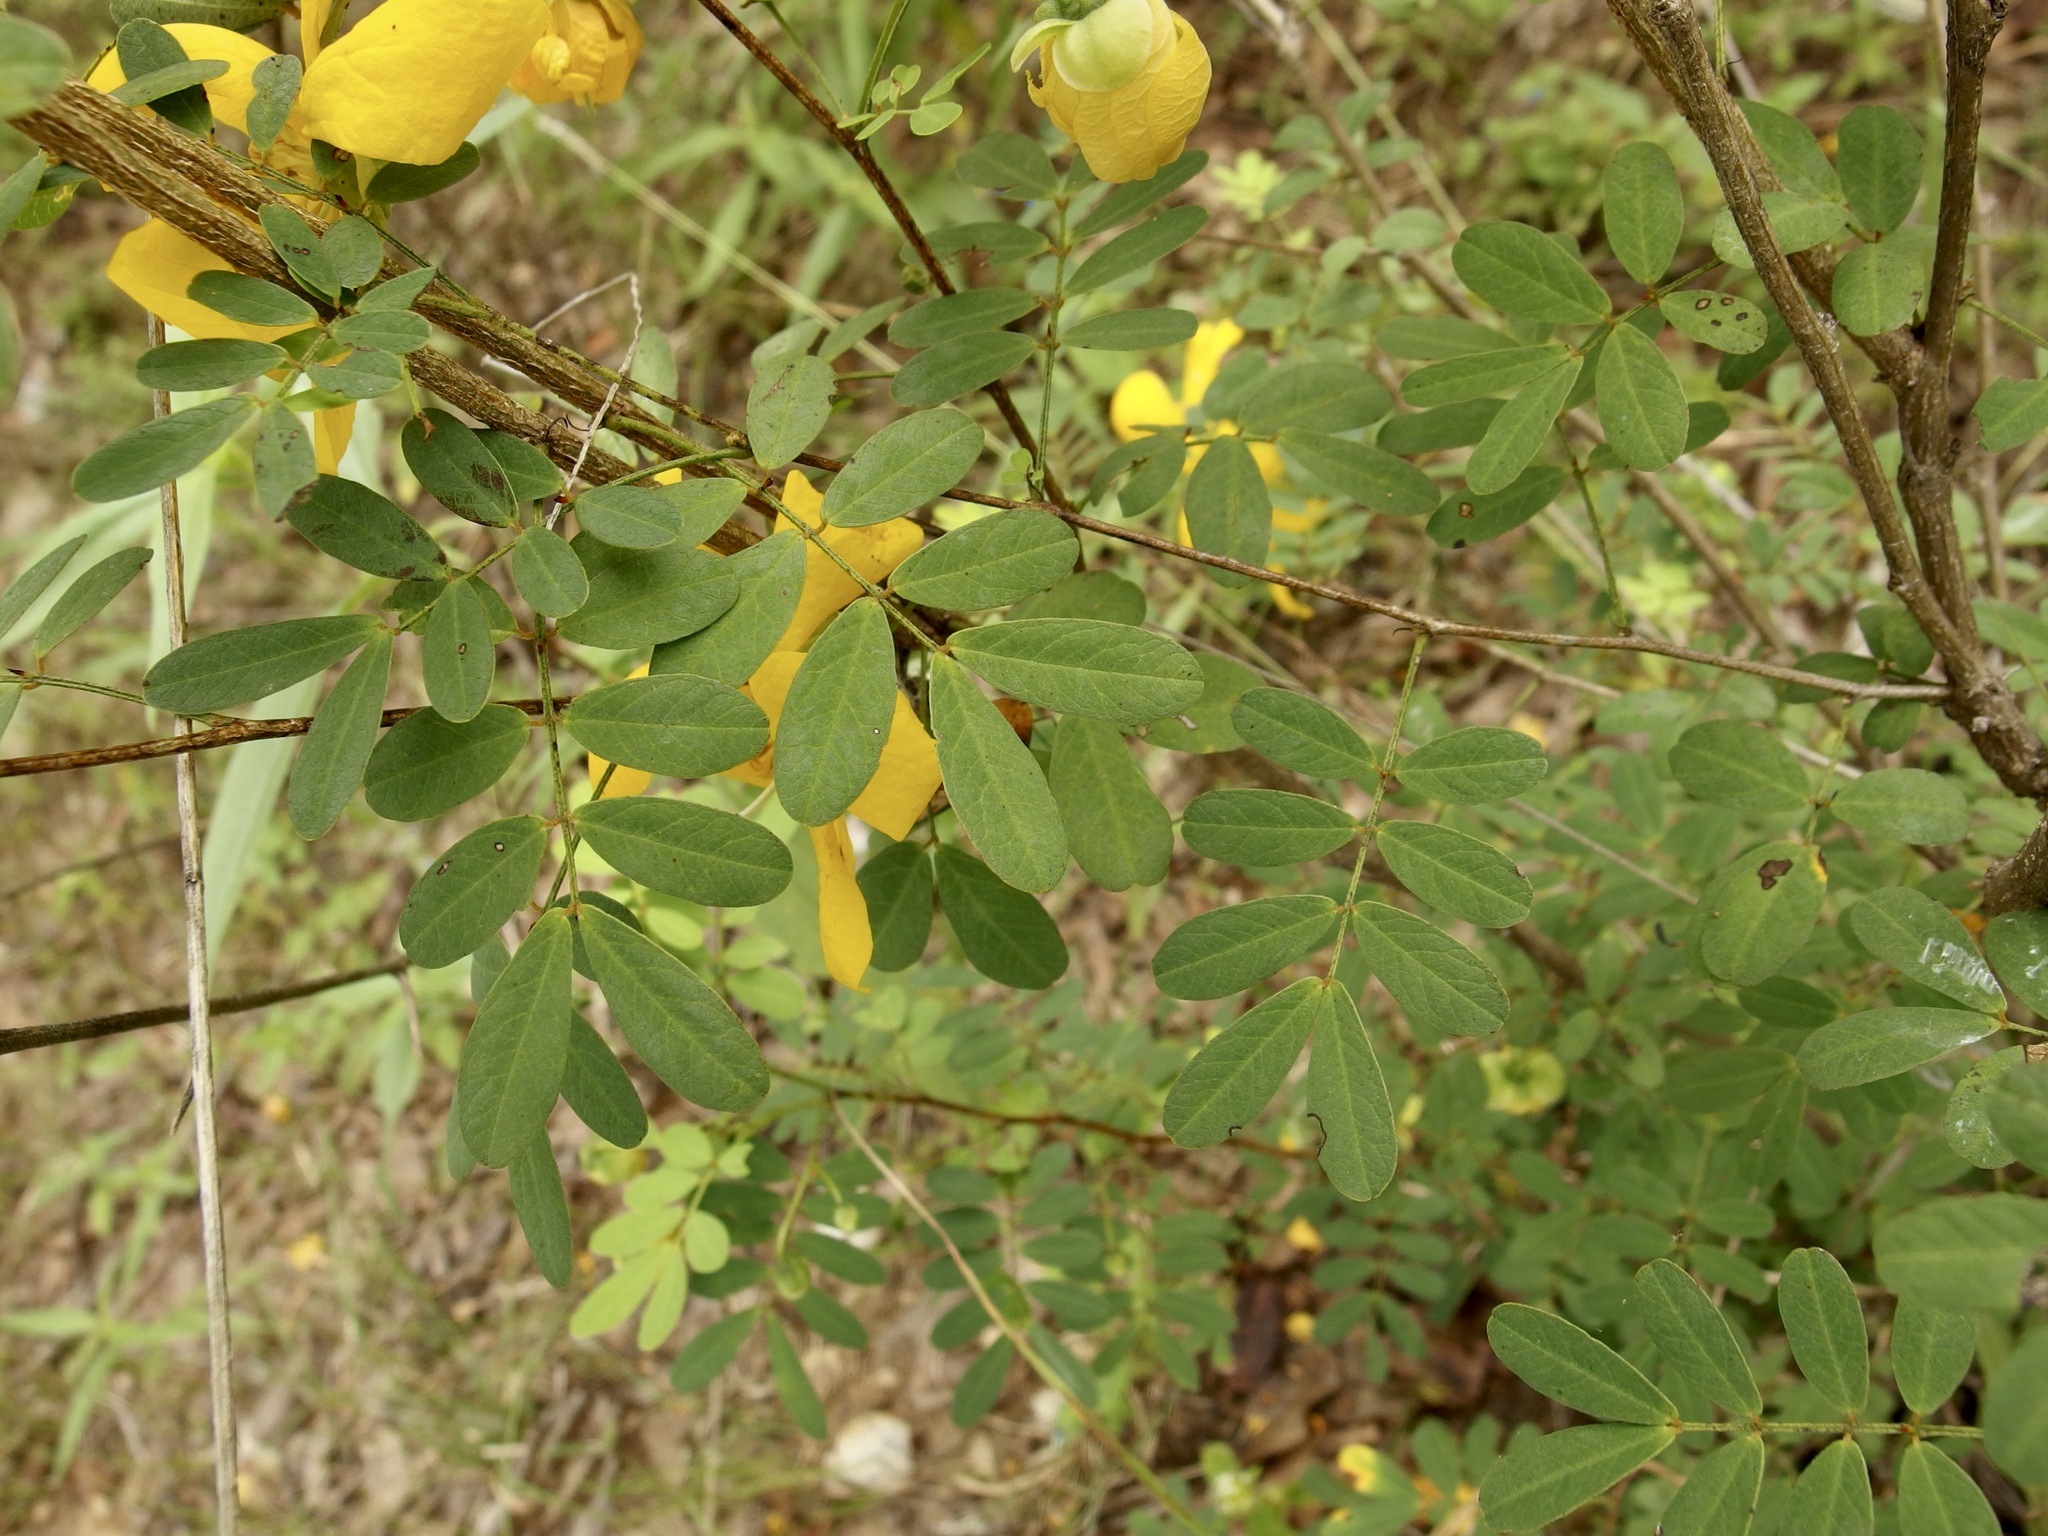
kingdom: Plantae
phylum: Tracheophyta
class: Magnoliopsida
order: Fabales
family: Fabaceae
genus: Senna
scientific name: Senna pallida
